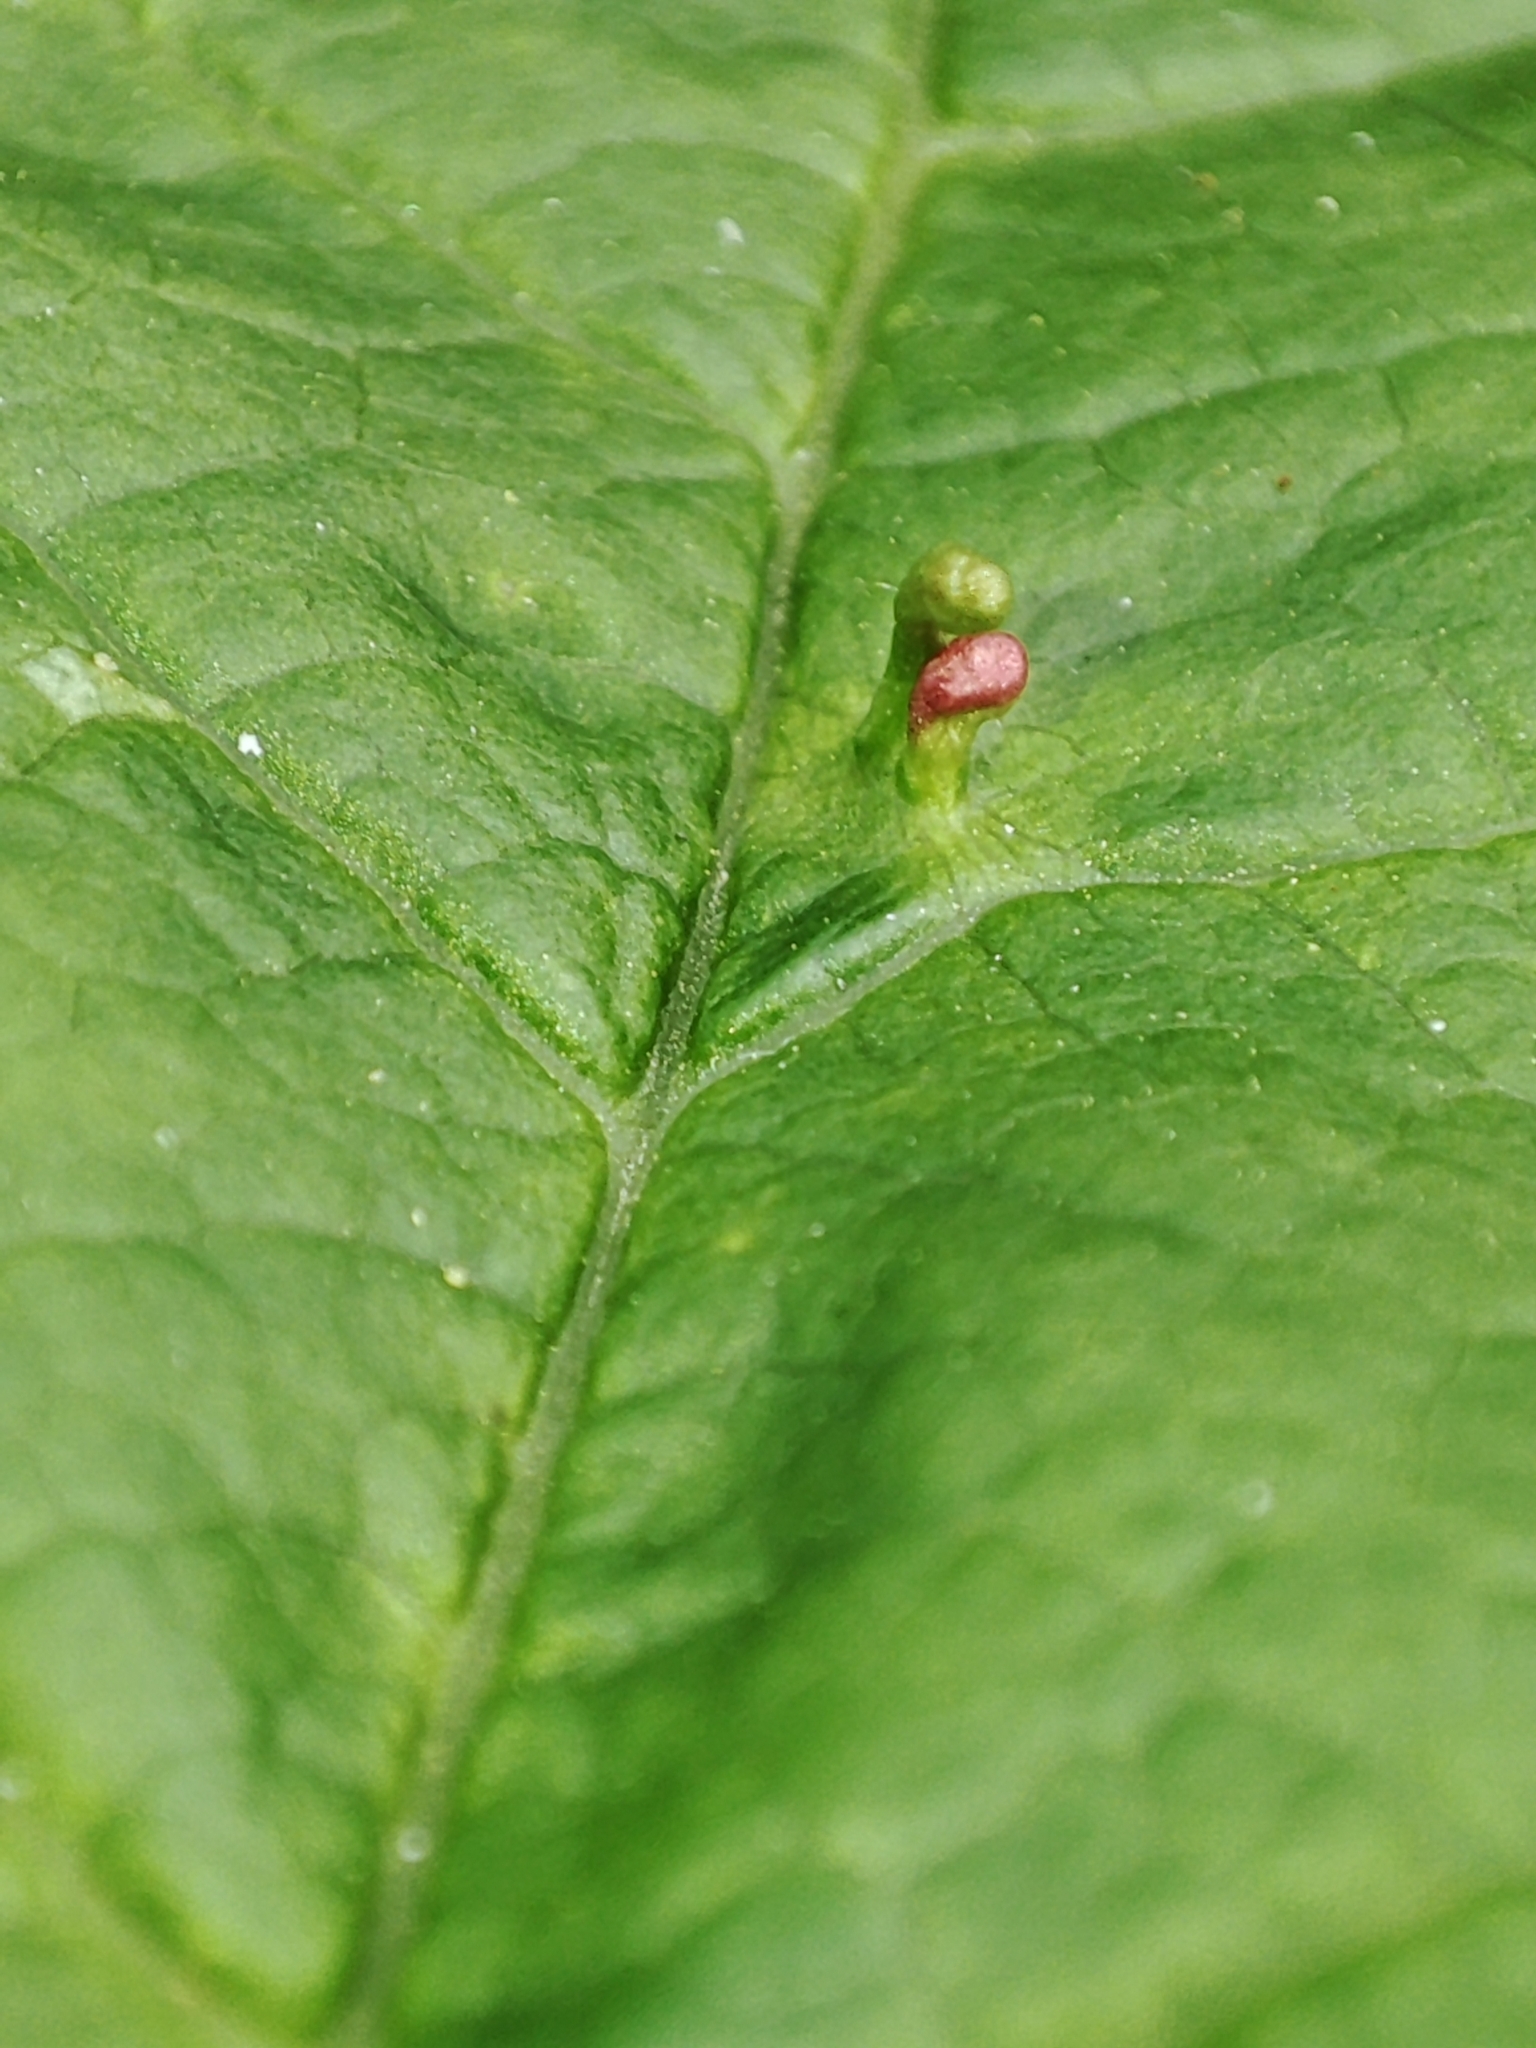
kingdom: Plantae
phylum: Tracheophyta
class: Magnoliopsida
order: Rosales
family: Rosaceae
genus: Prunus
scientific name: Prunus padus
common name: Bird cherry
